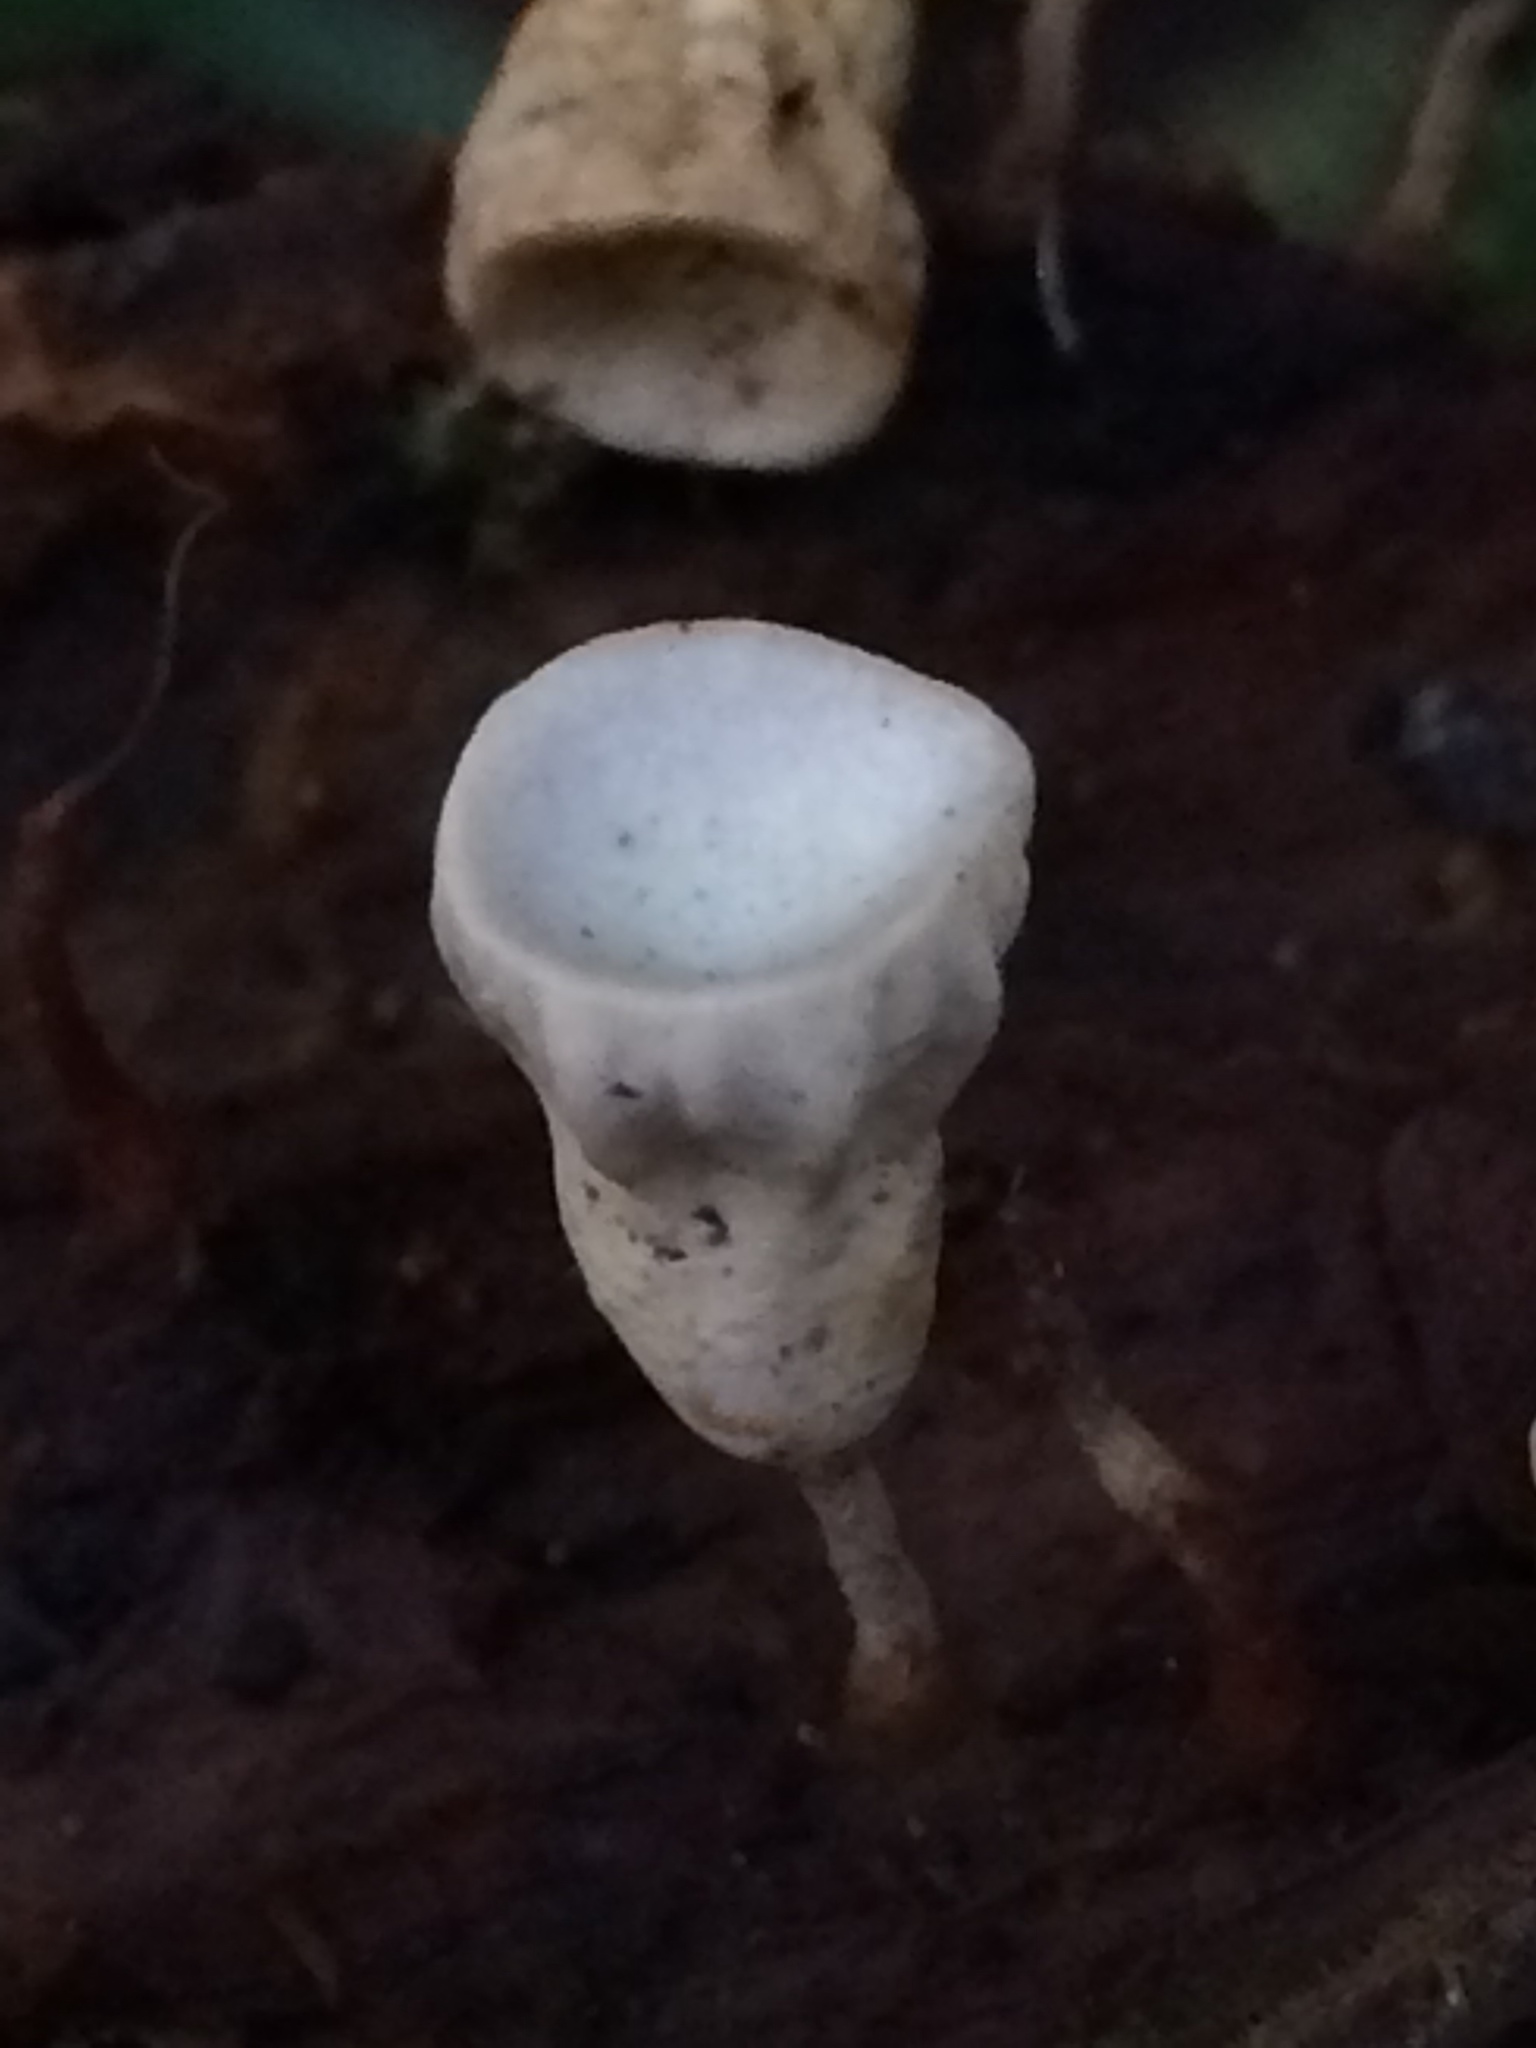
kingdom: Fungi
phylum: Basidiomycota
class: Agaricomycetes
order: Agaricales
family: Omphalotaceae
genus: Gymnopus
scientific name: Gymnopus montagnei
